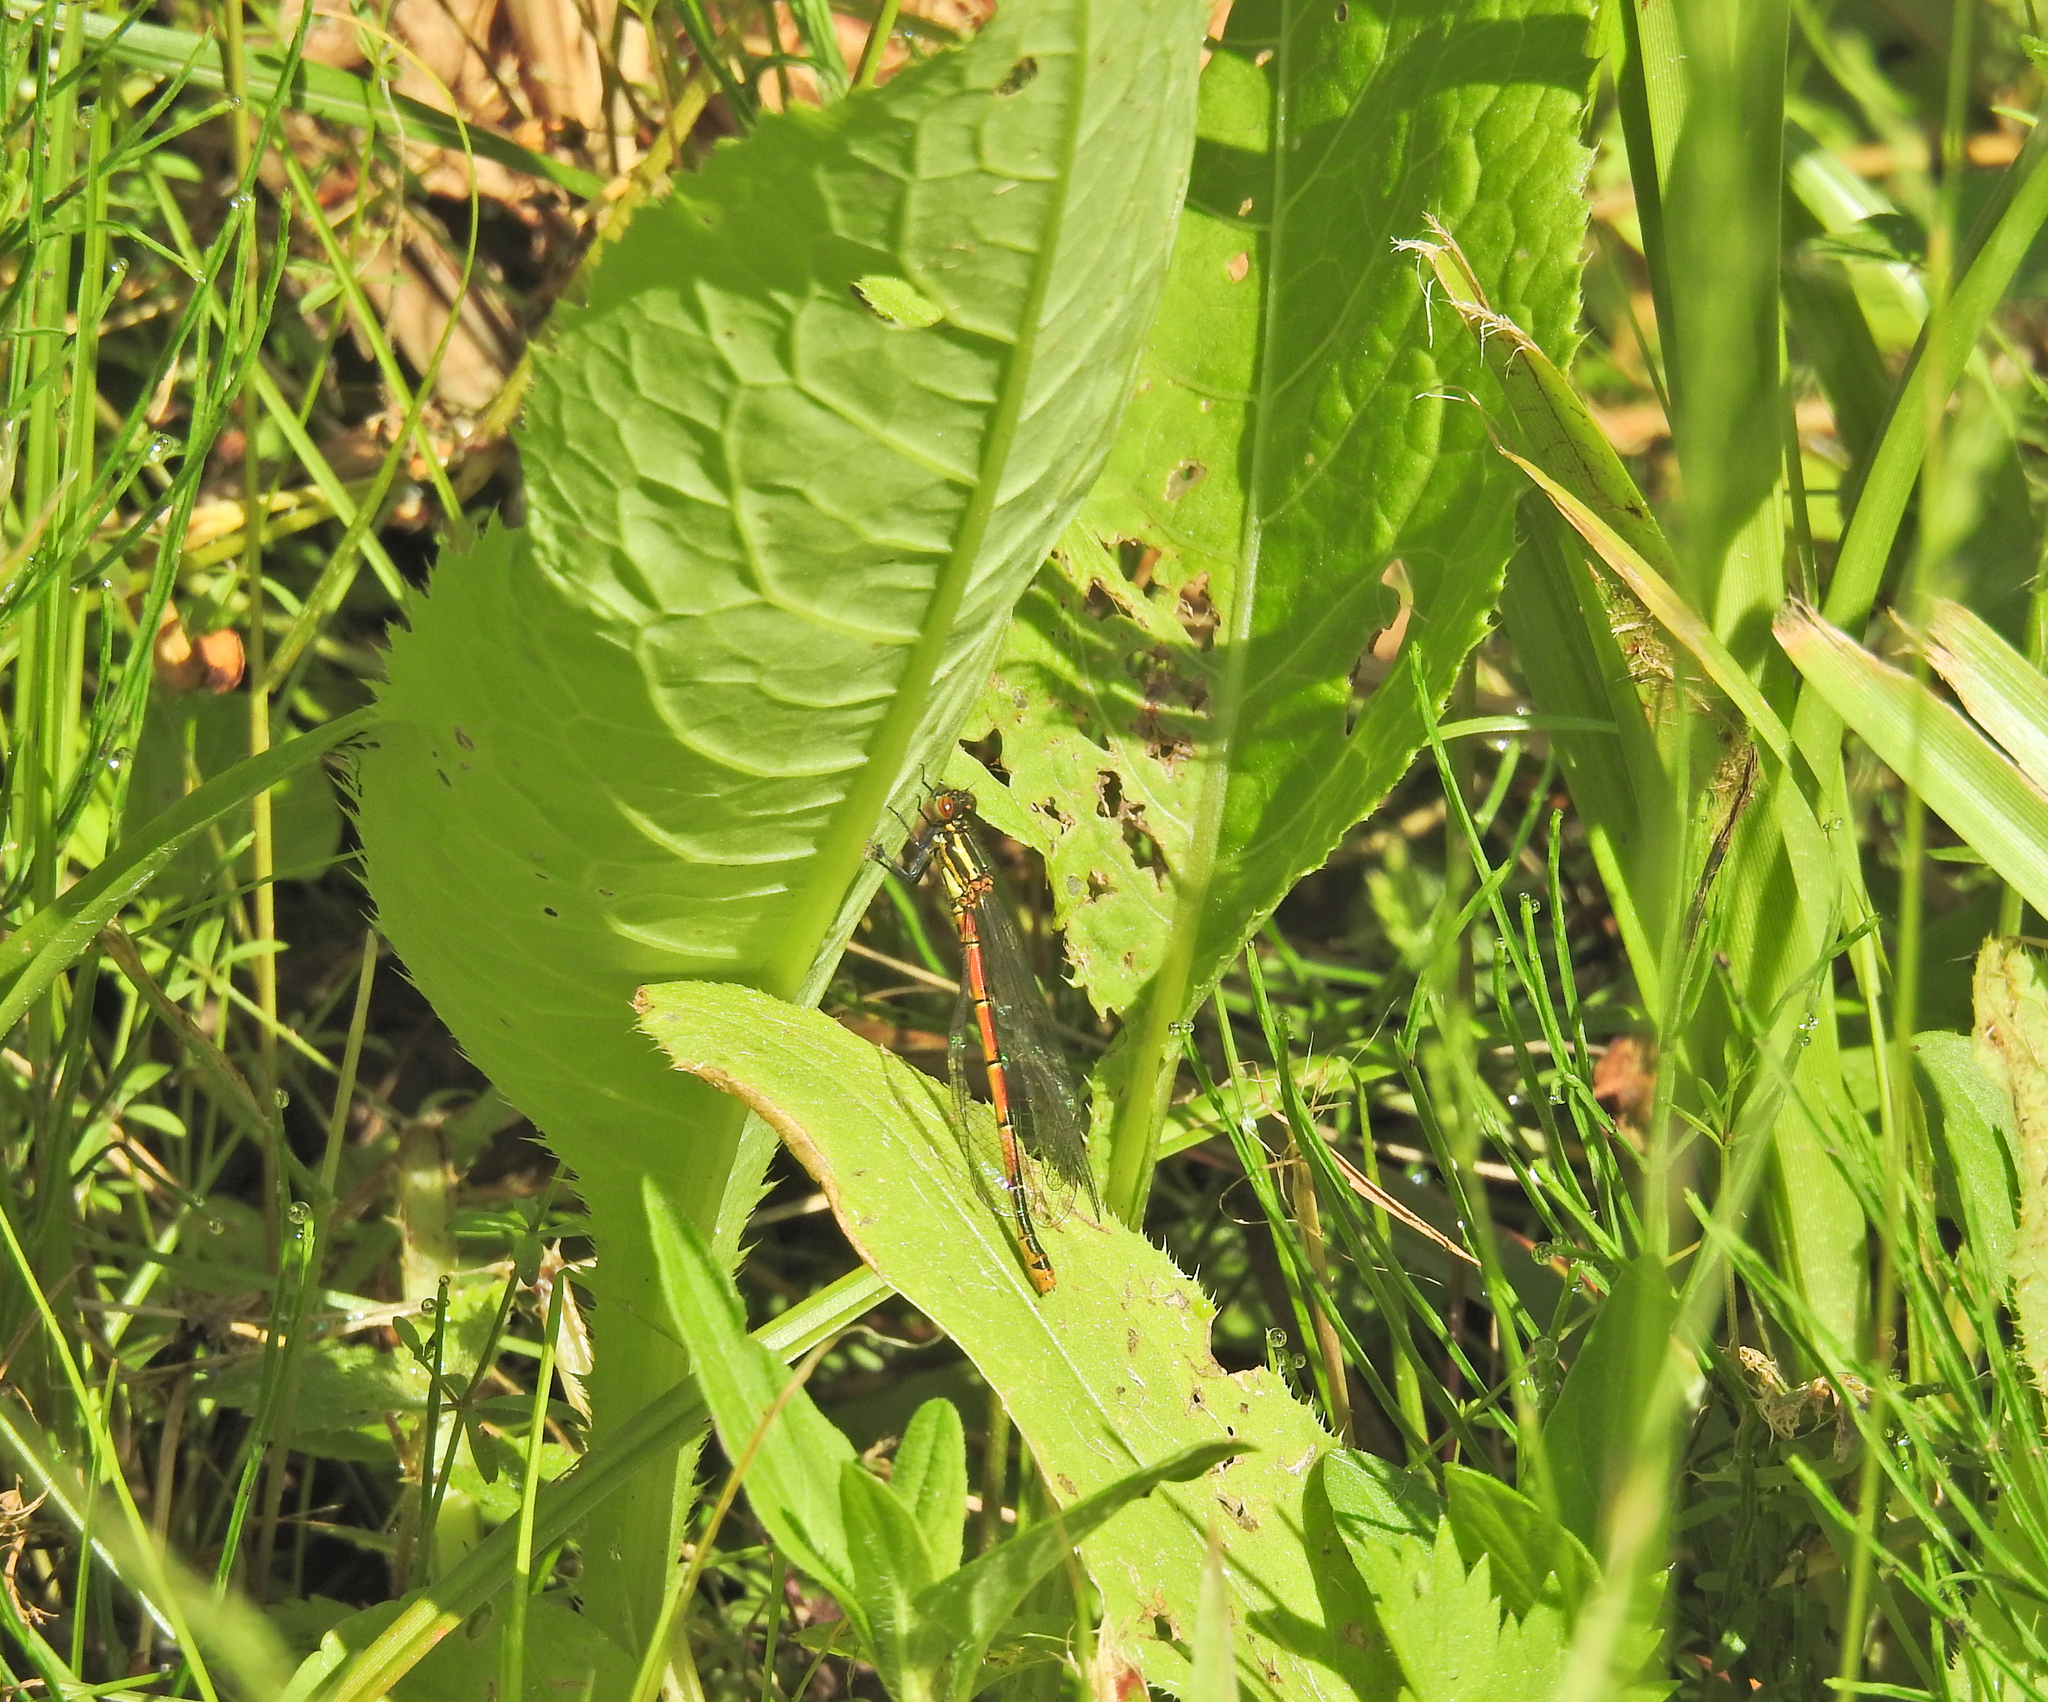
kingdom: Animalia
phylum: Arthropoda
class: Insecta
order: Odonata
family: Coenagrionidae
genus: Pyrrhosoma
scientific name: Pyrrhosoma nymphula
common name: Large red damsel
